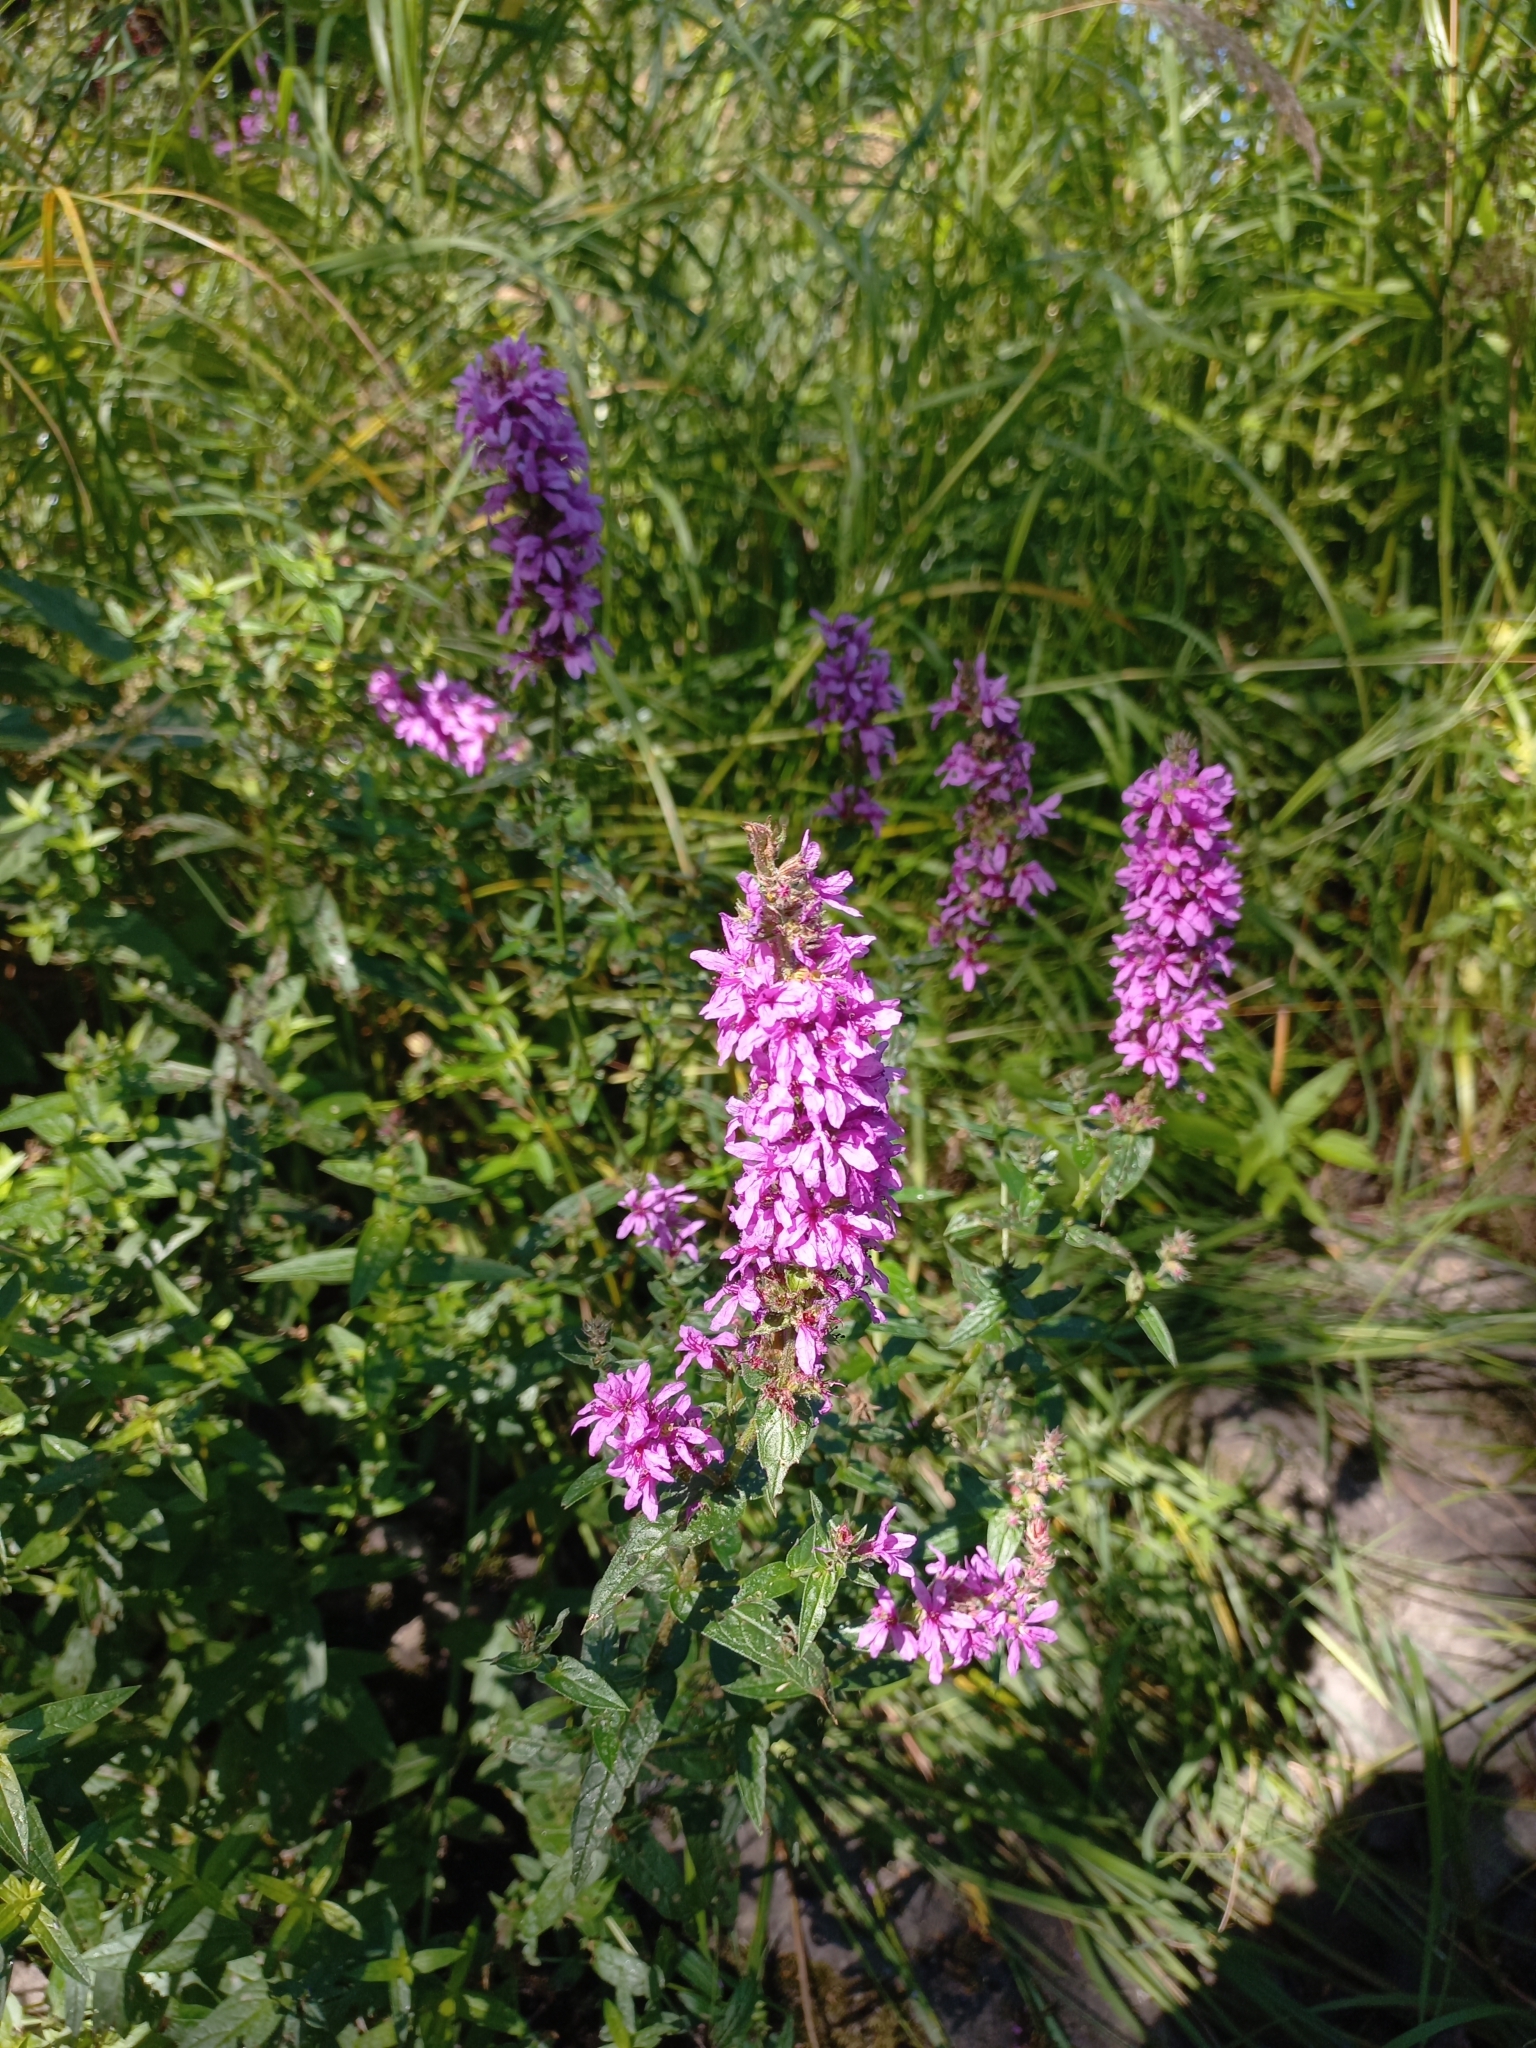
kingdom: Plantae
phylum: Tracheophyta
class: Magnoliopsida
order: Myrtales
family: Lythraceae
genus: Lythrum
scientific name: Lythrum salicaria
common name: Purple loosestrife
